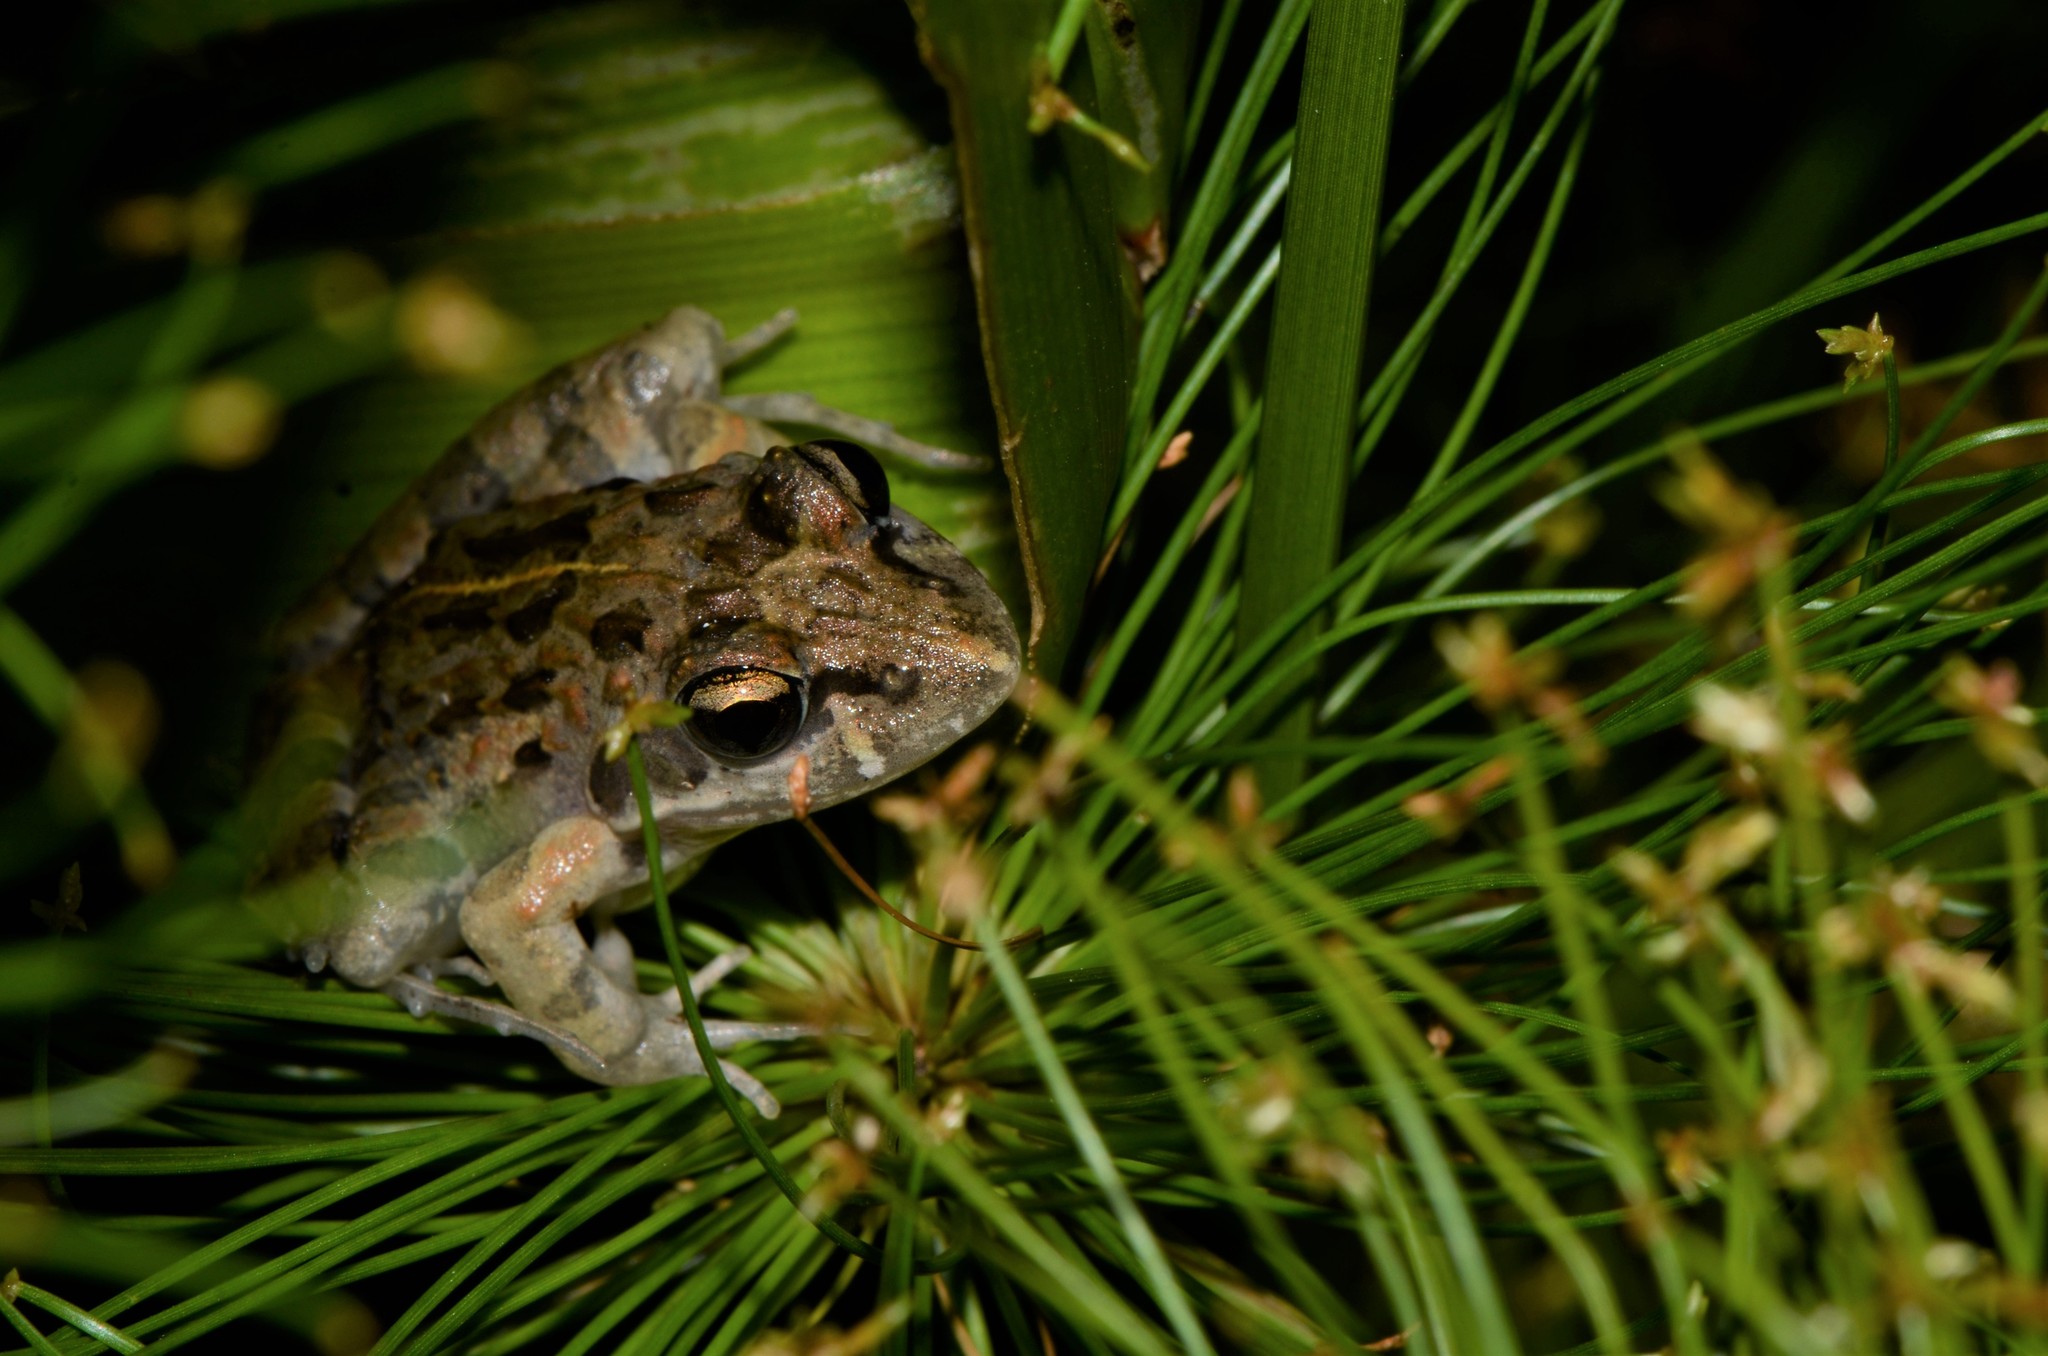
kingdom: Animalia
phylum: Chordata
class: Amphibia
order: Anura
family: Pyxicephalidae
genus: Strongylopus
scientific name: Strongylopus grayii
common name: Gray's stream frog
